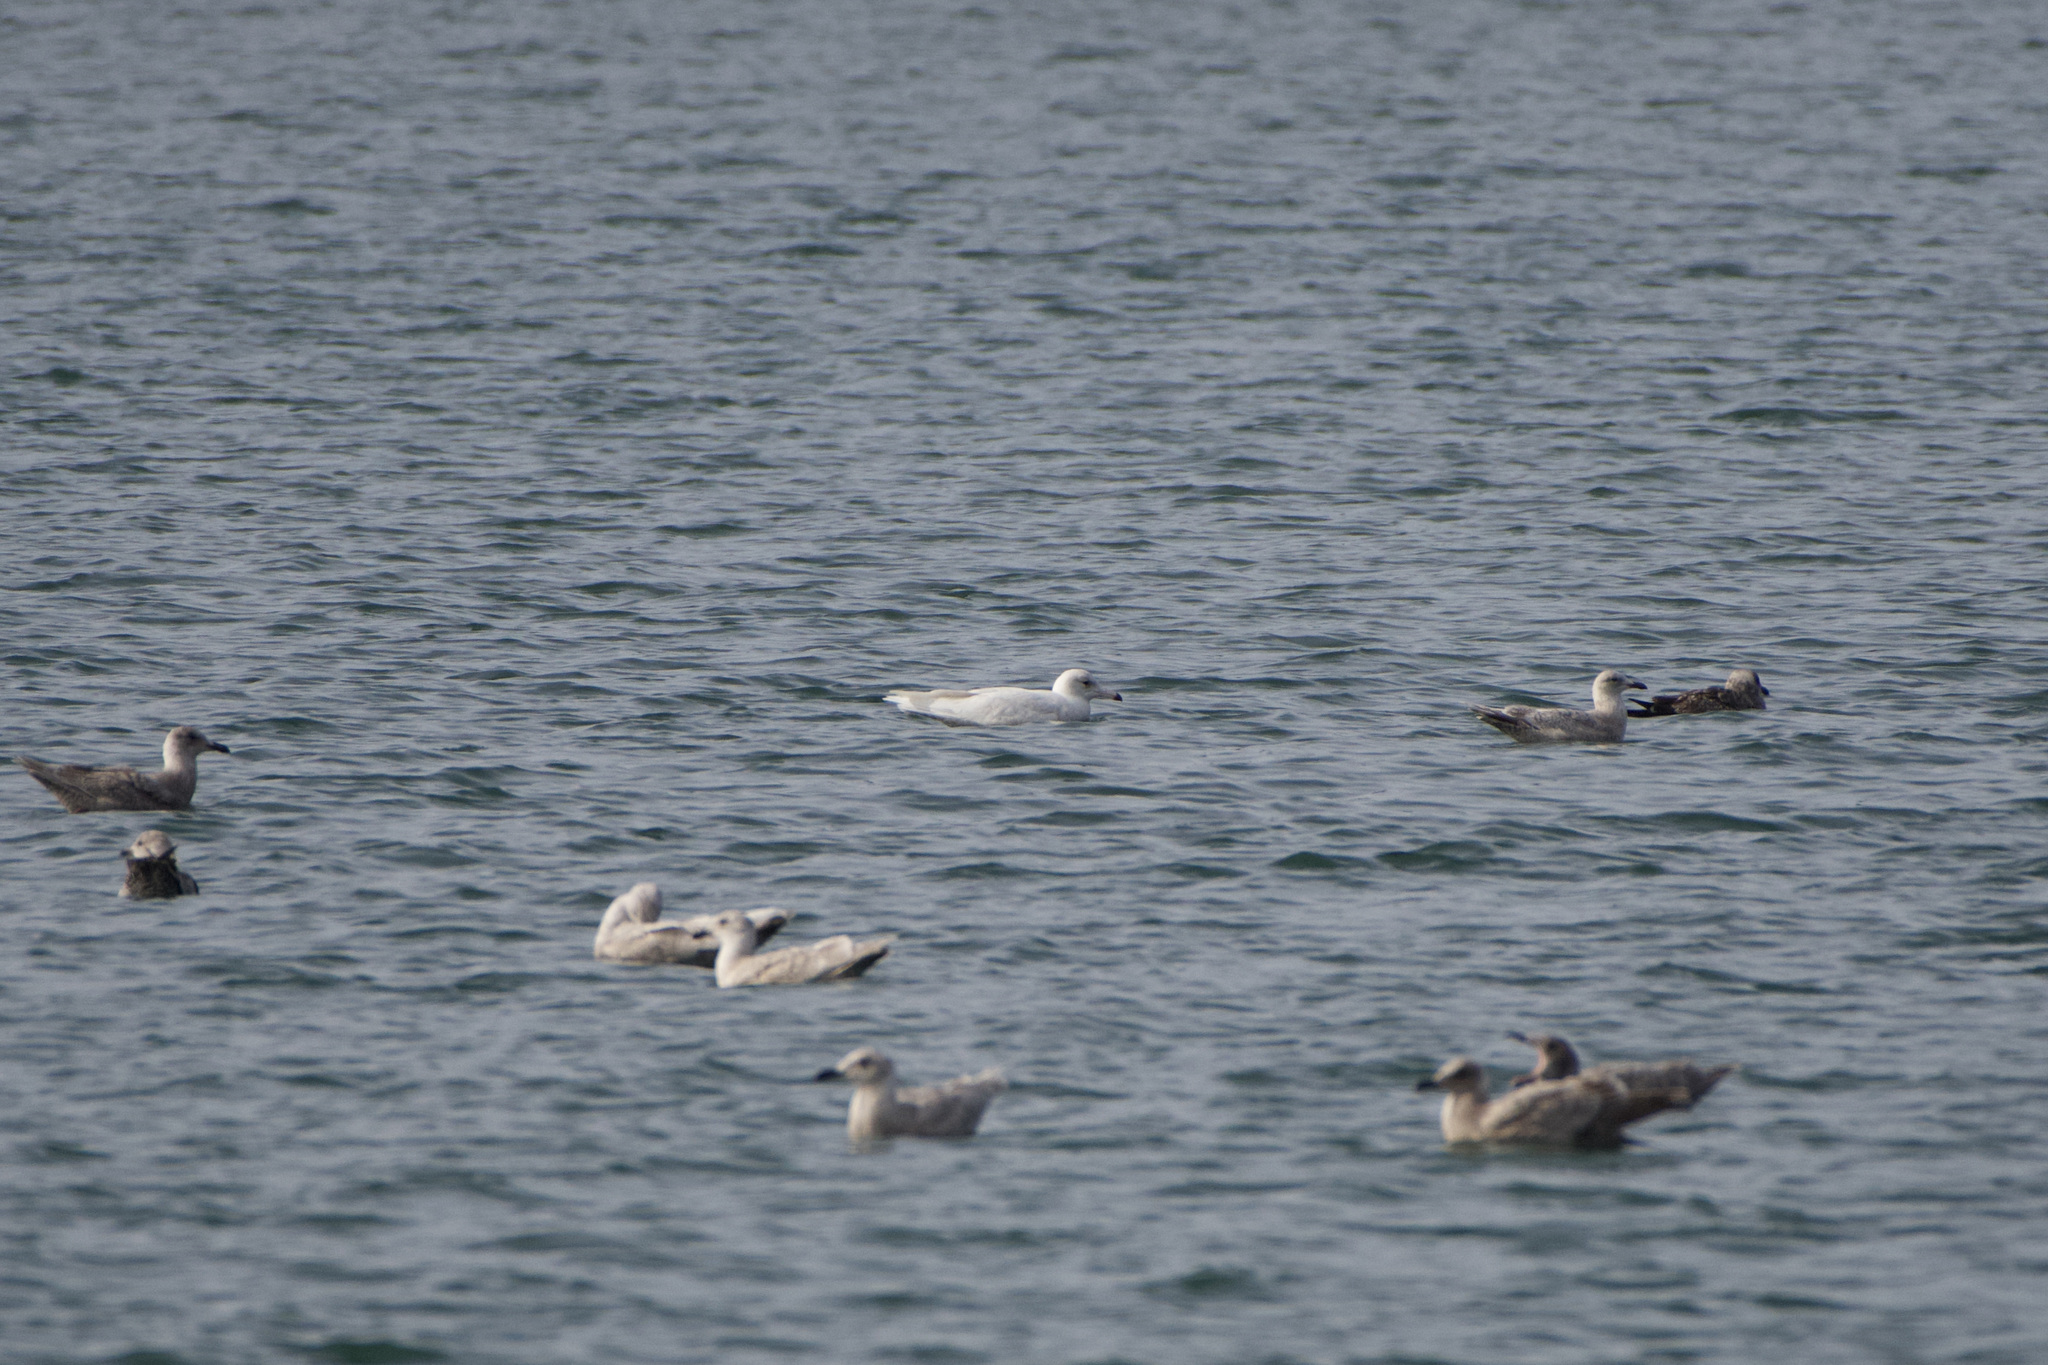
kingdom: Animalia
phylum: Chordata
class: Aves
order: Charadriiformes
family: Laridae
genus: Larus
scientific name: Larus hyperboreus
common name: Glaucous gull
